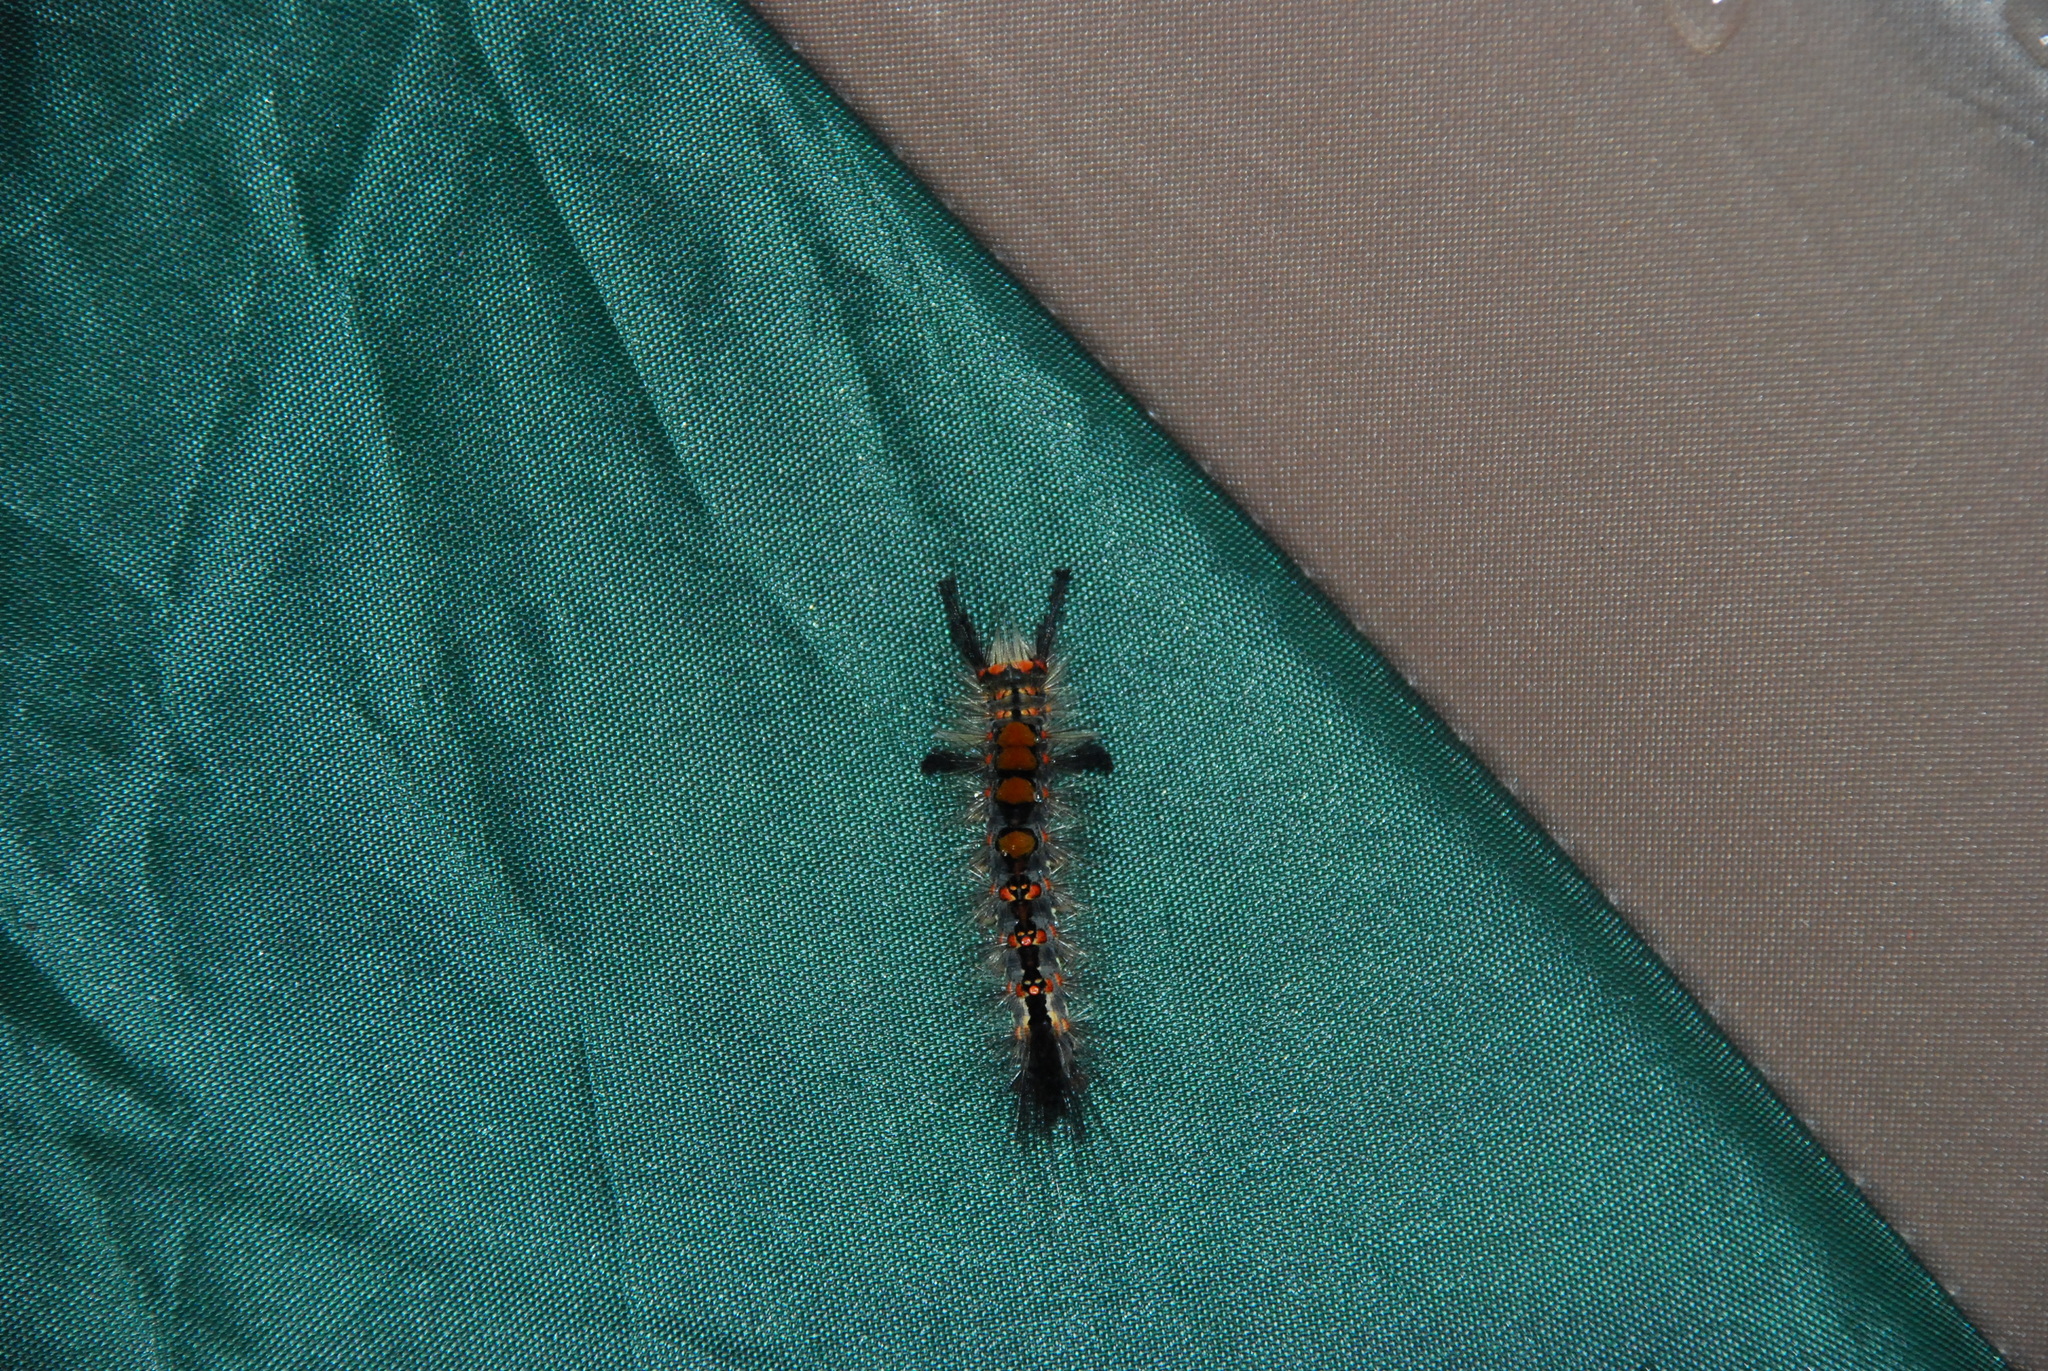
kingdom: Animalia
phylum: Arthropoda
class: Insecta
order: Lepidoptera
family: Erebidae
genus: Orgyia
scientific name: Orgyia antiqua
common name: Vapourer
